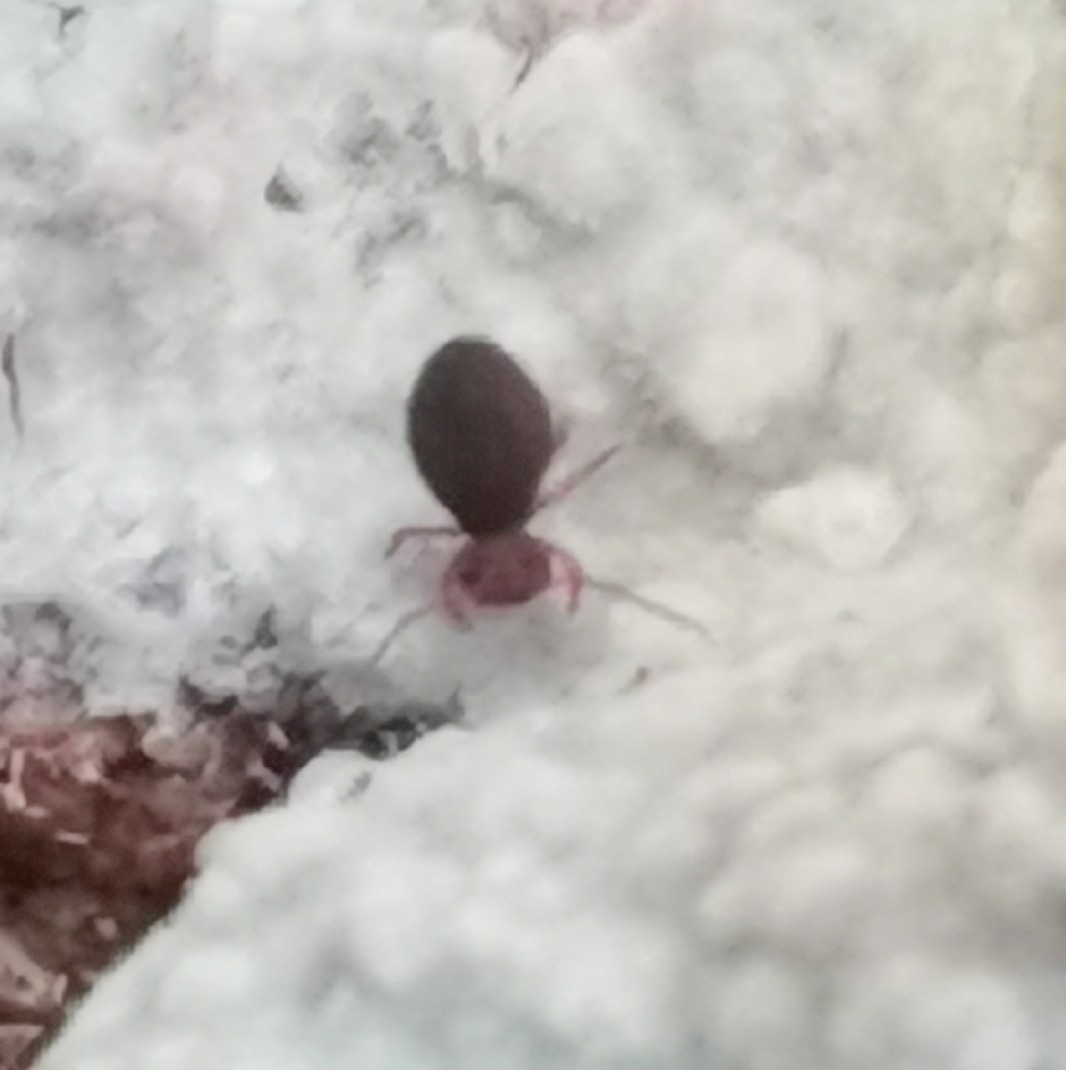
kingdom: Animalia
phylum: Arthropoda
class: Collembola
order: Symphypleona
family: Dicyrtomidae
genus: Dicyrtoma
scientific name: Dicyrtoma fusca
